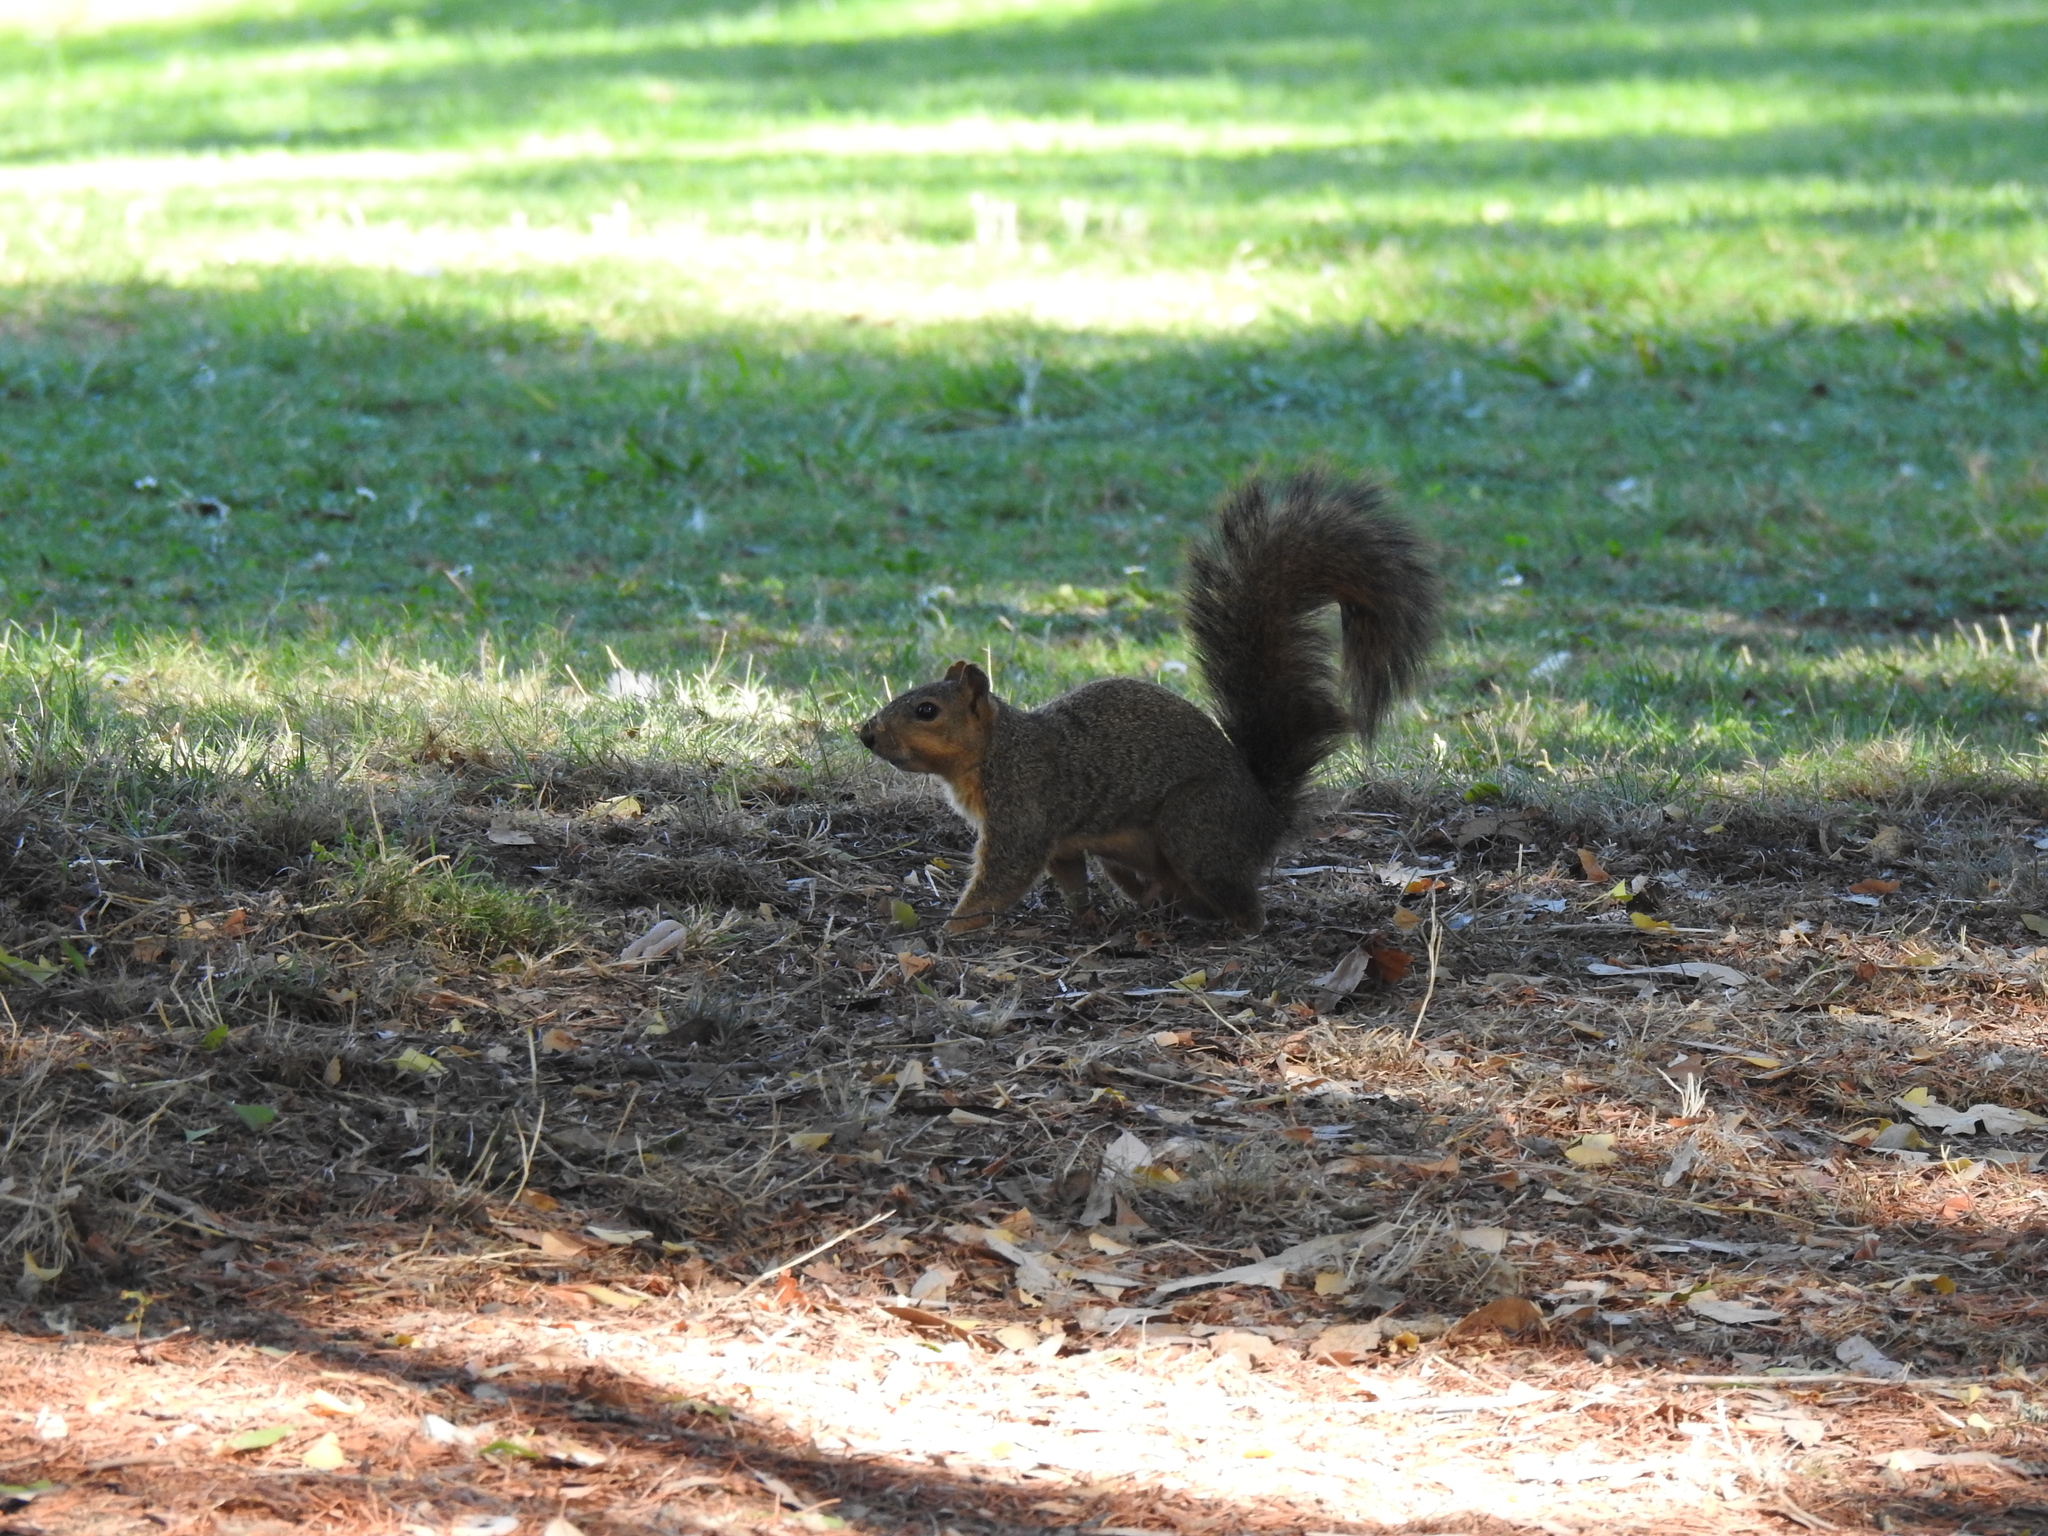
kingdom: Animalia
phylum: Chordata
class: Mammalia
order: Rodentia
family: Sciuridae
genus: Sciurus
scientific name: Sciurus niger
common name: Fox squirrel
